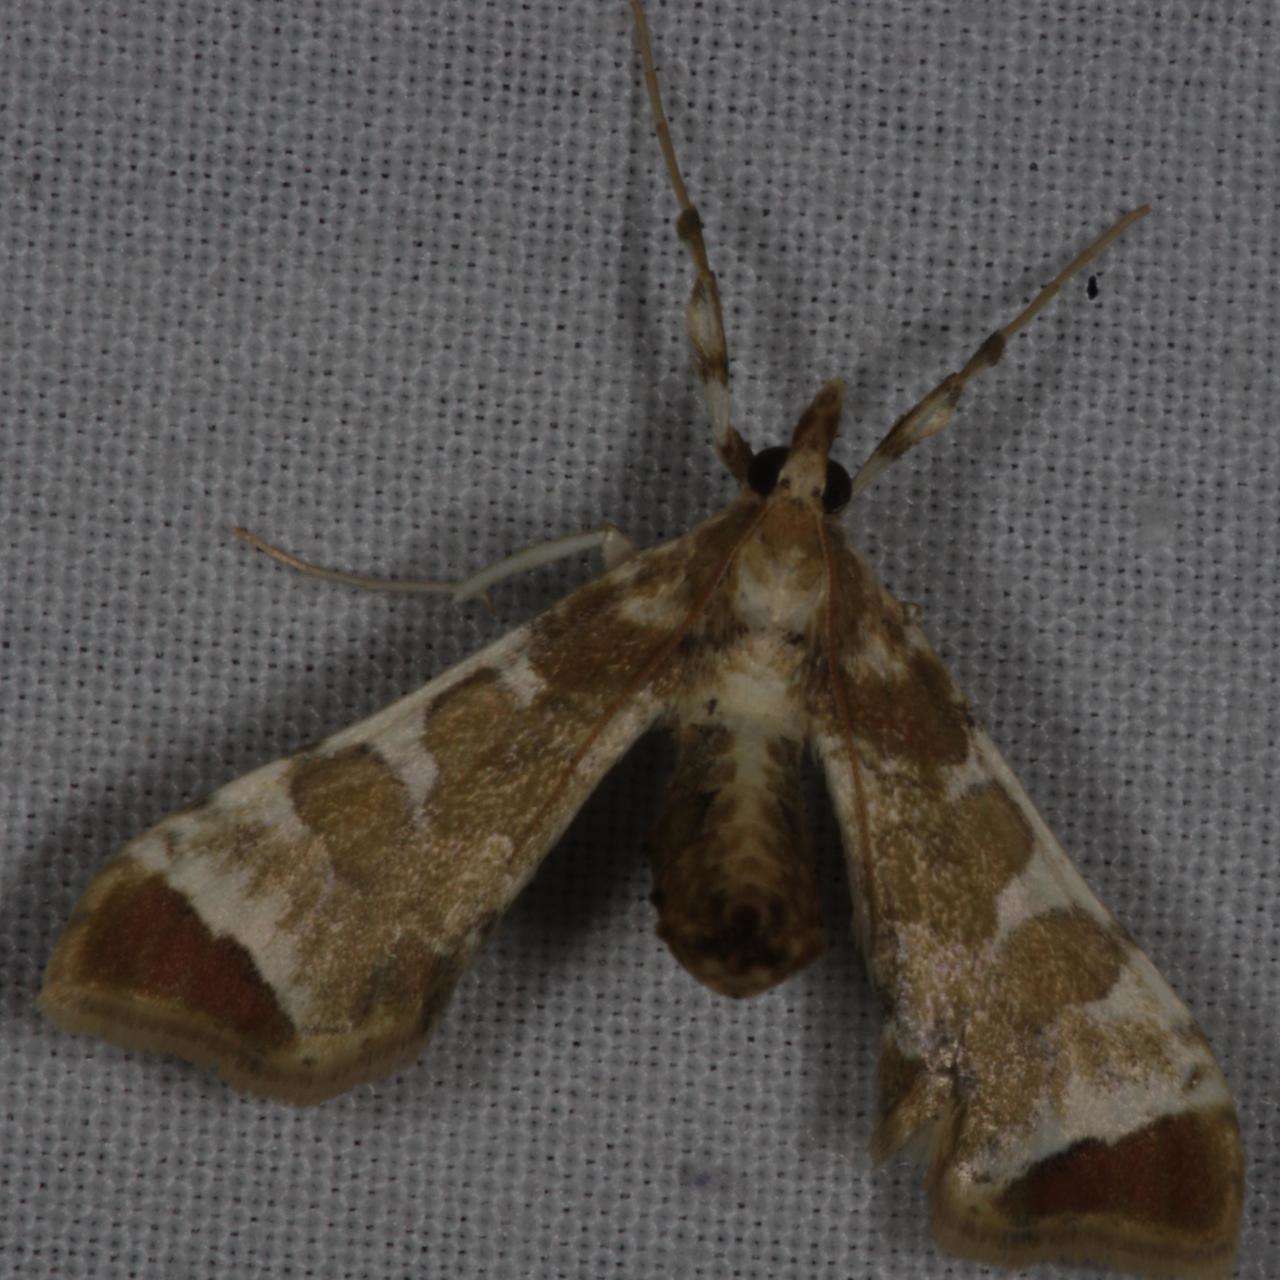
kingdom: Animalia
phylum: Arthropoda
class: Insecta
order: Lepidoptera
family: Crambidae
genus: Sceliodes
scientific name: Sceliodes cordalis
